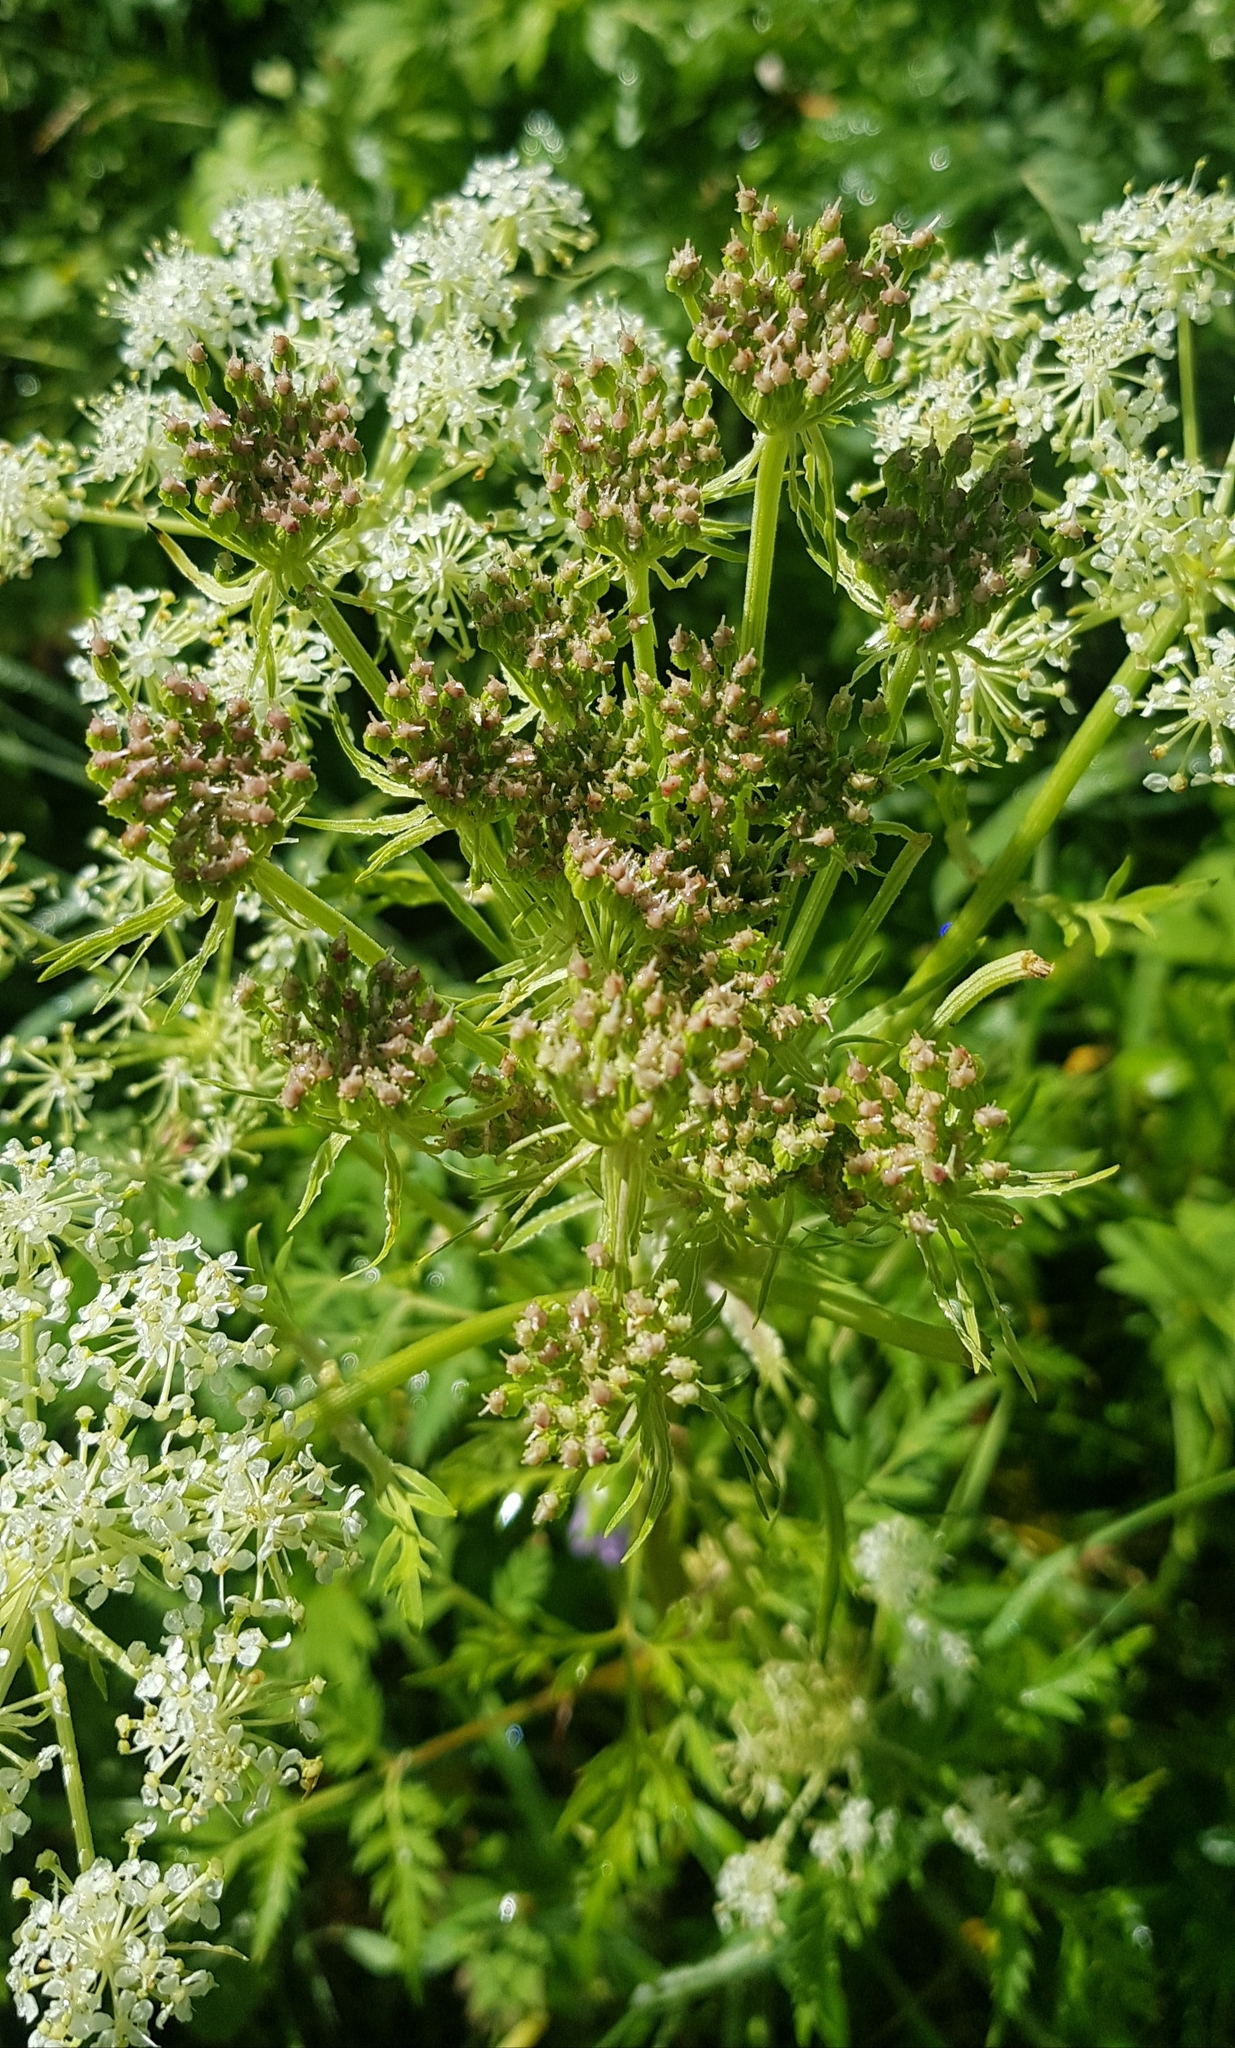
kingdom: Plantae
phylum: Tracheophyta
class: Magnoliopsida
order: Apiales
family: Apiaceae
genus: Pleurospermum
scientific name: Pleurospermum uralense
